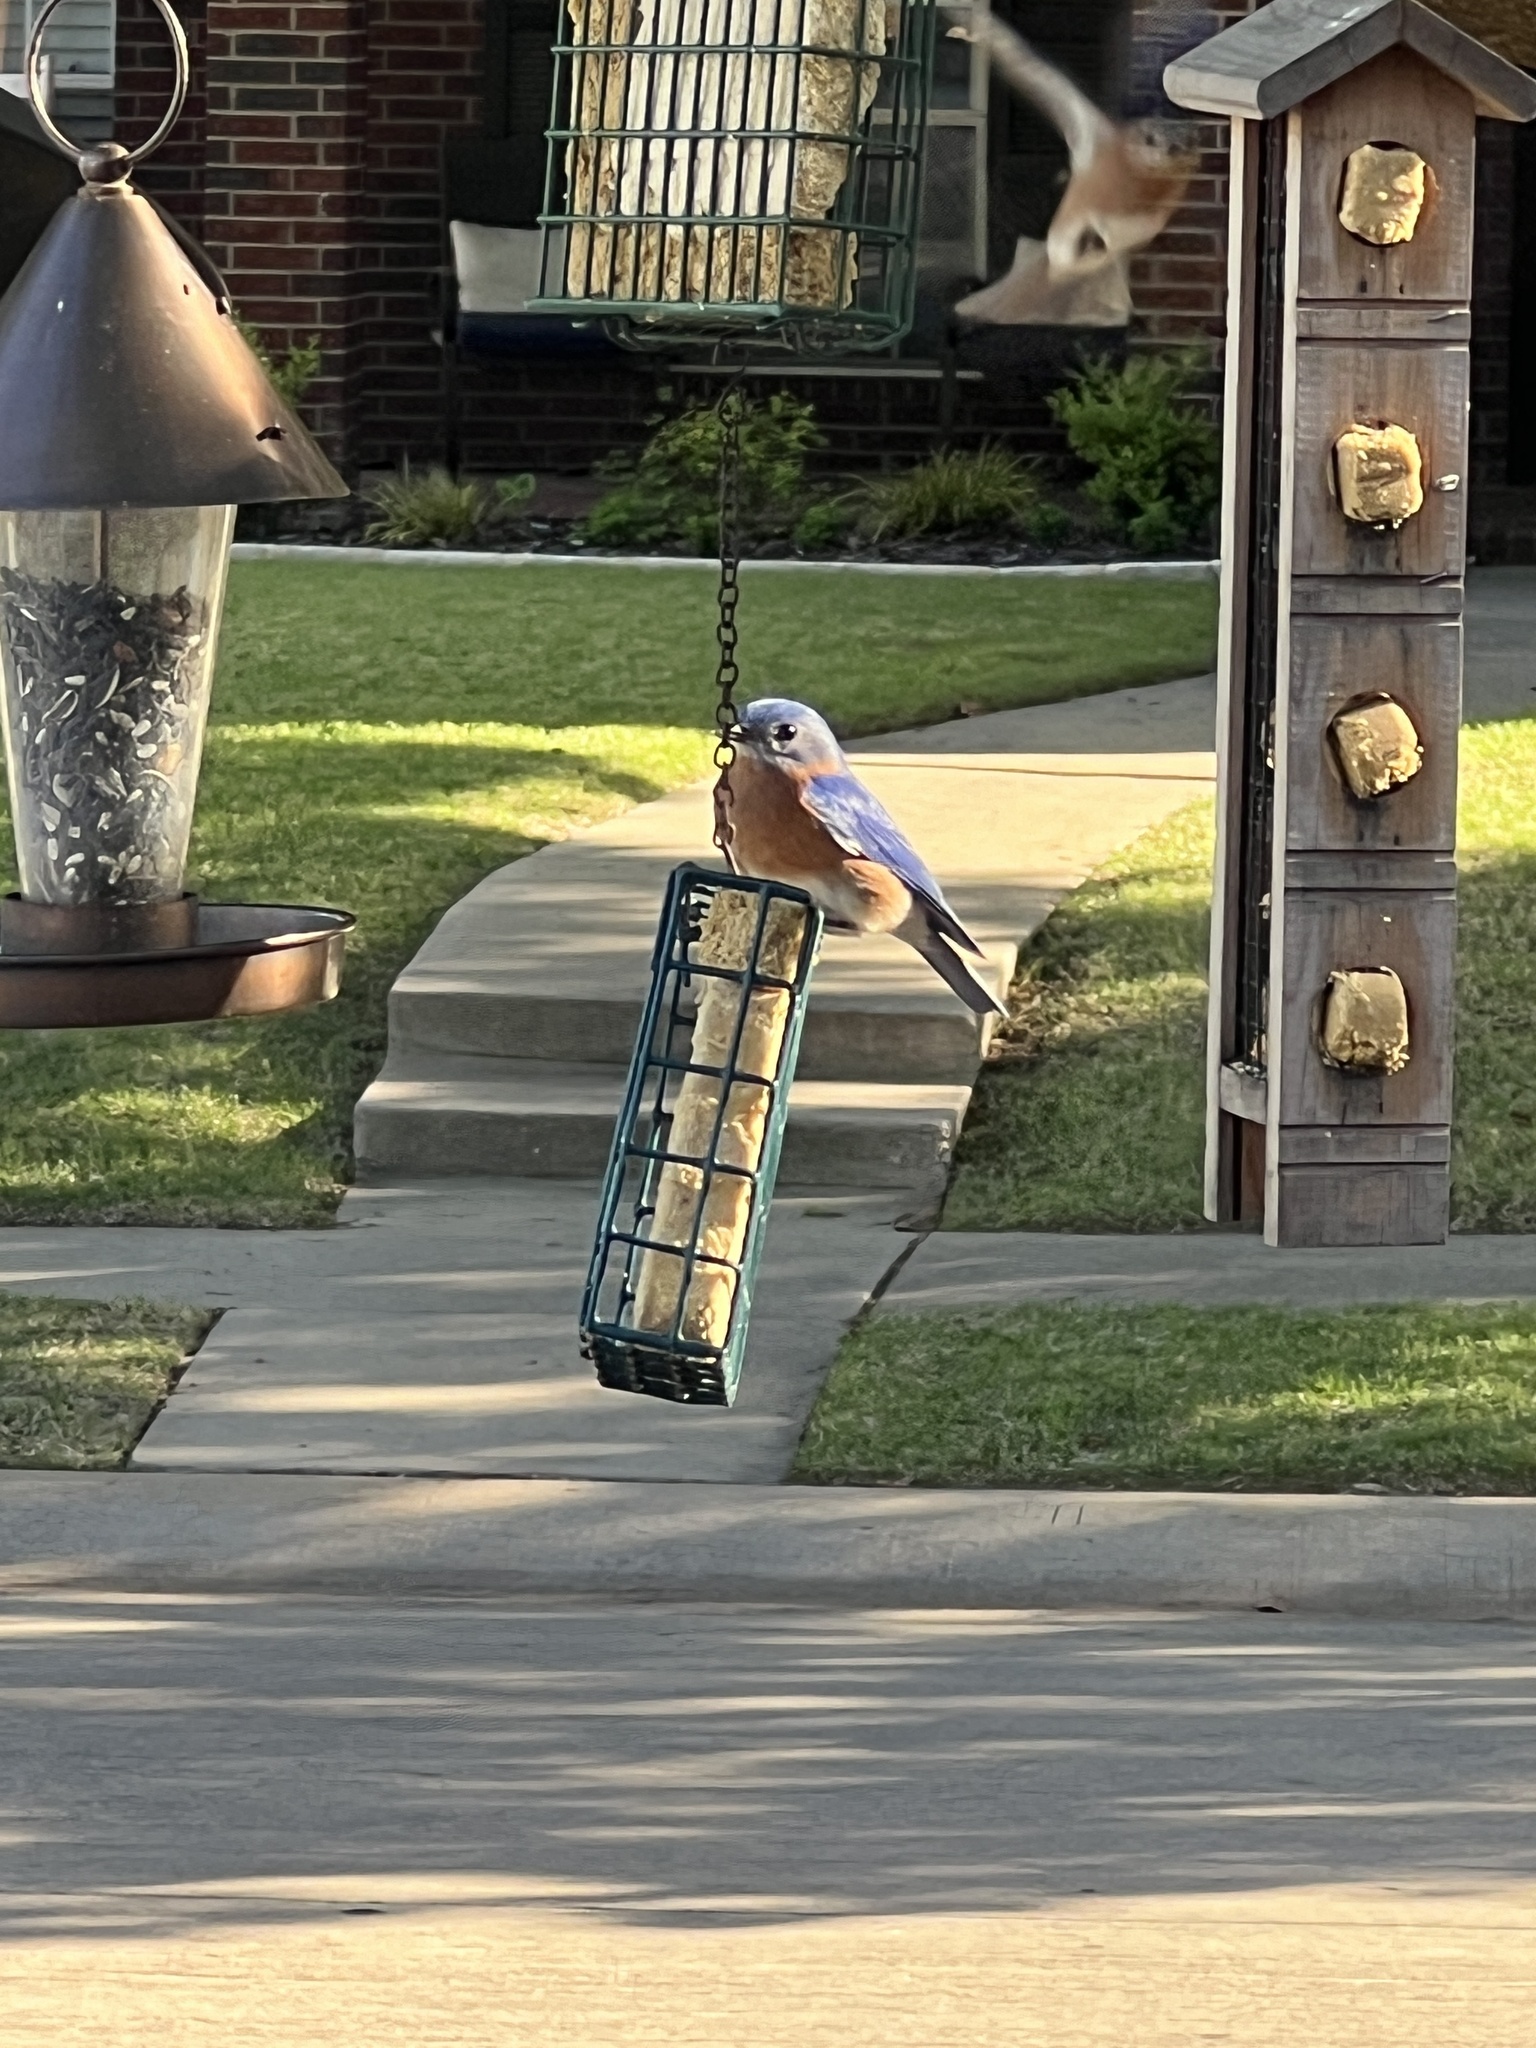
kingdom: Animalia
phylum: Chordata
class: Aves
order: Passeriformes
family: Turdidae
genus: Sialia
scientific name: Sialia sialis
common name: Eastern bluebird
